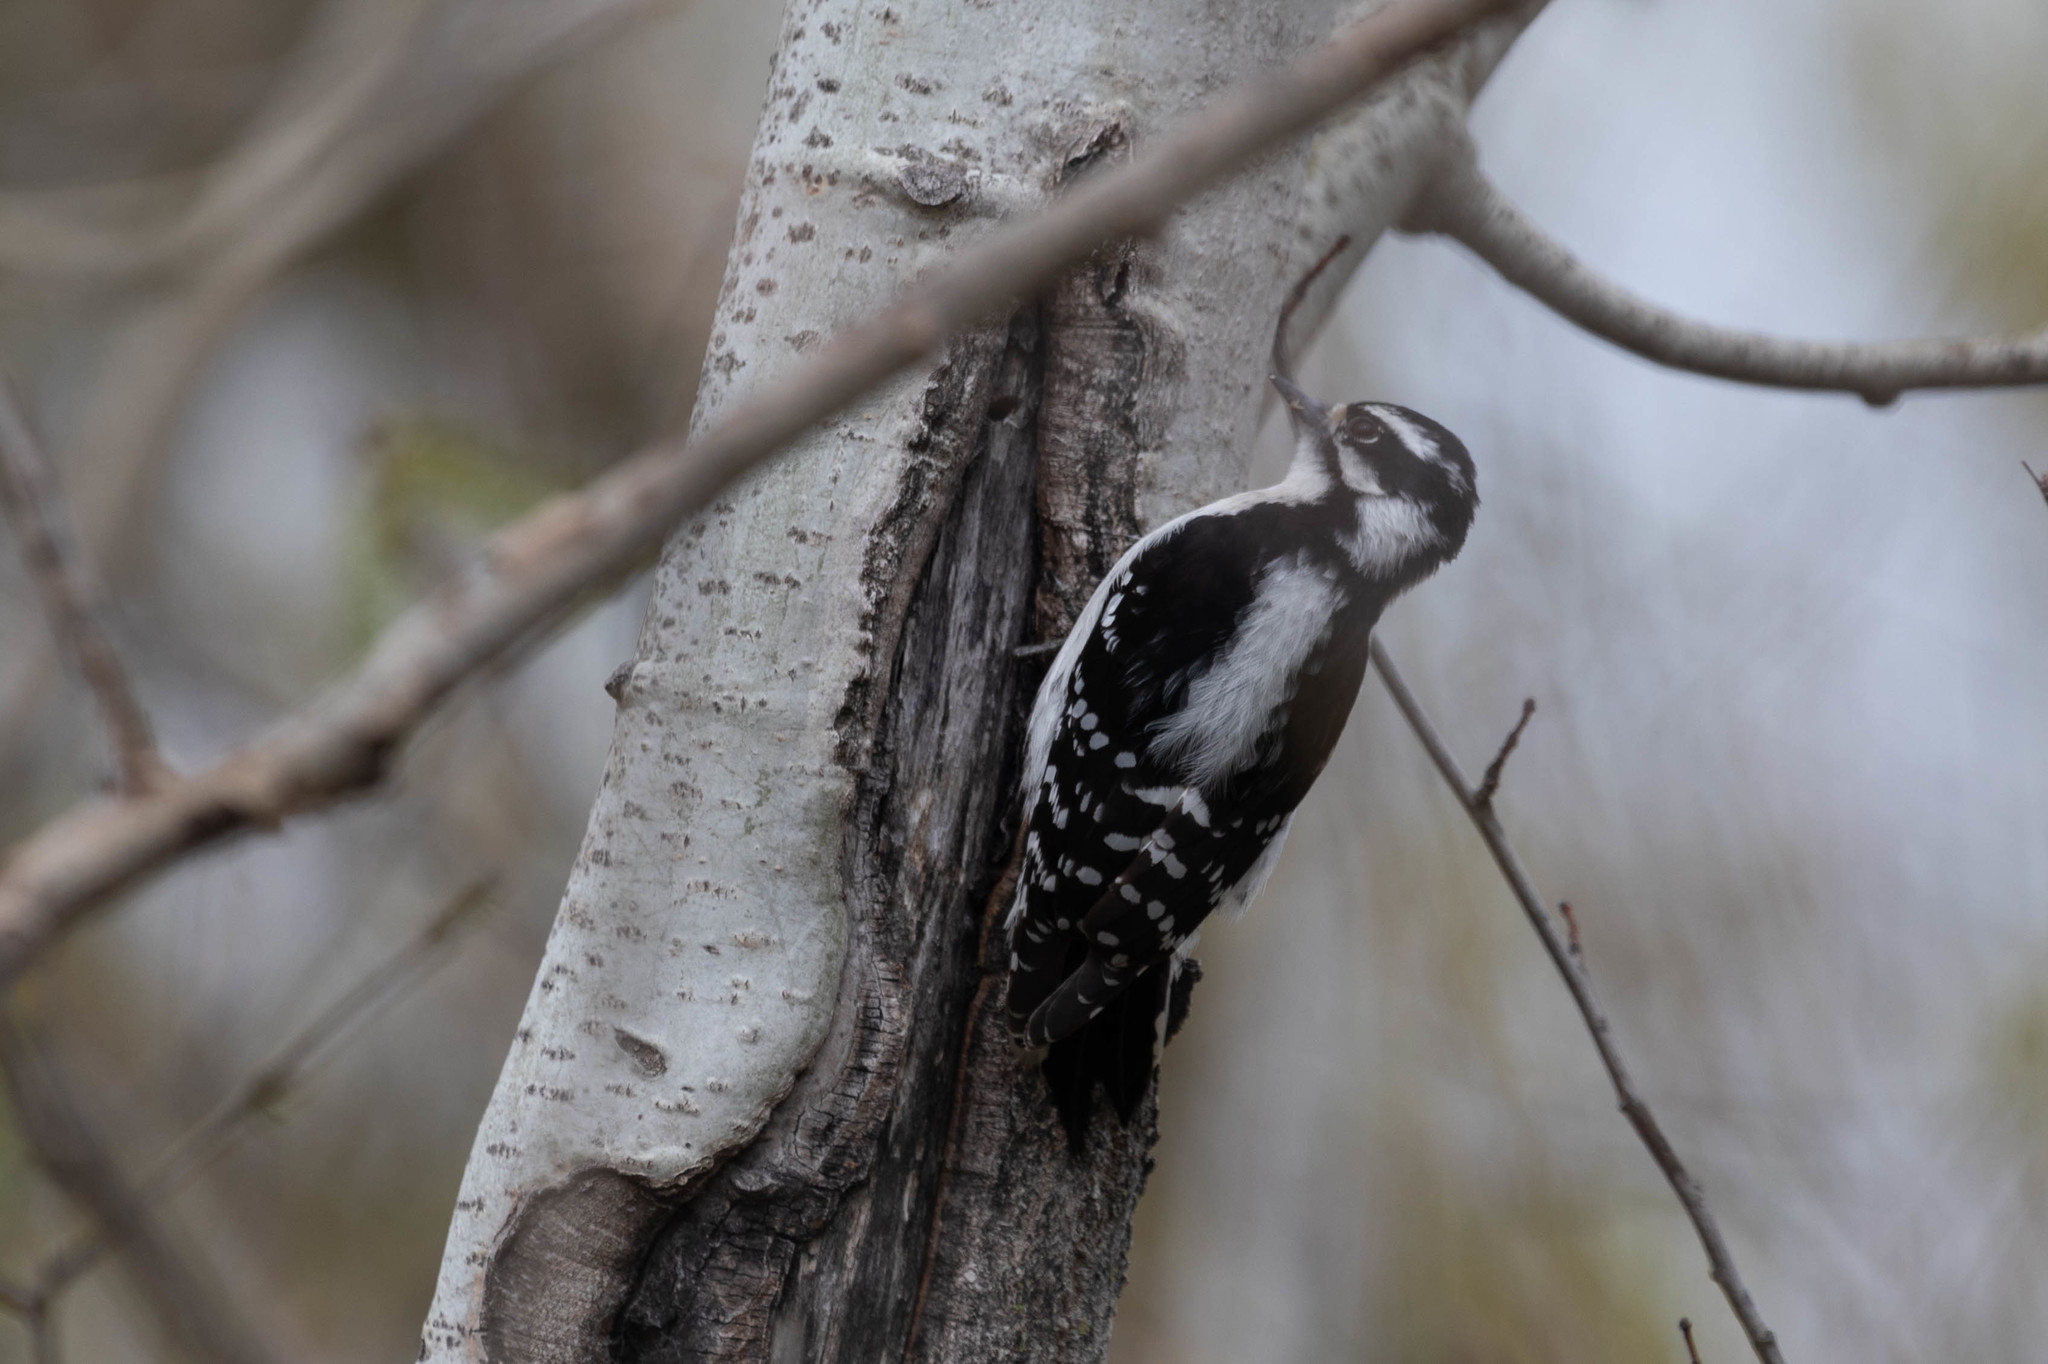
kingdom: Animalia
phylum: Chordata
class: Aves
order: Piciformes
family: Picidae
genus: Dryobates
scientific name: Dryobates pubescens
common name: Downy woodpecker
